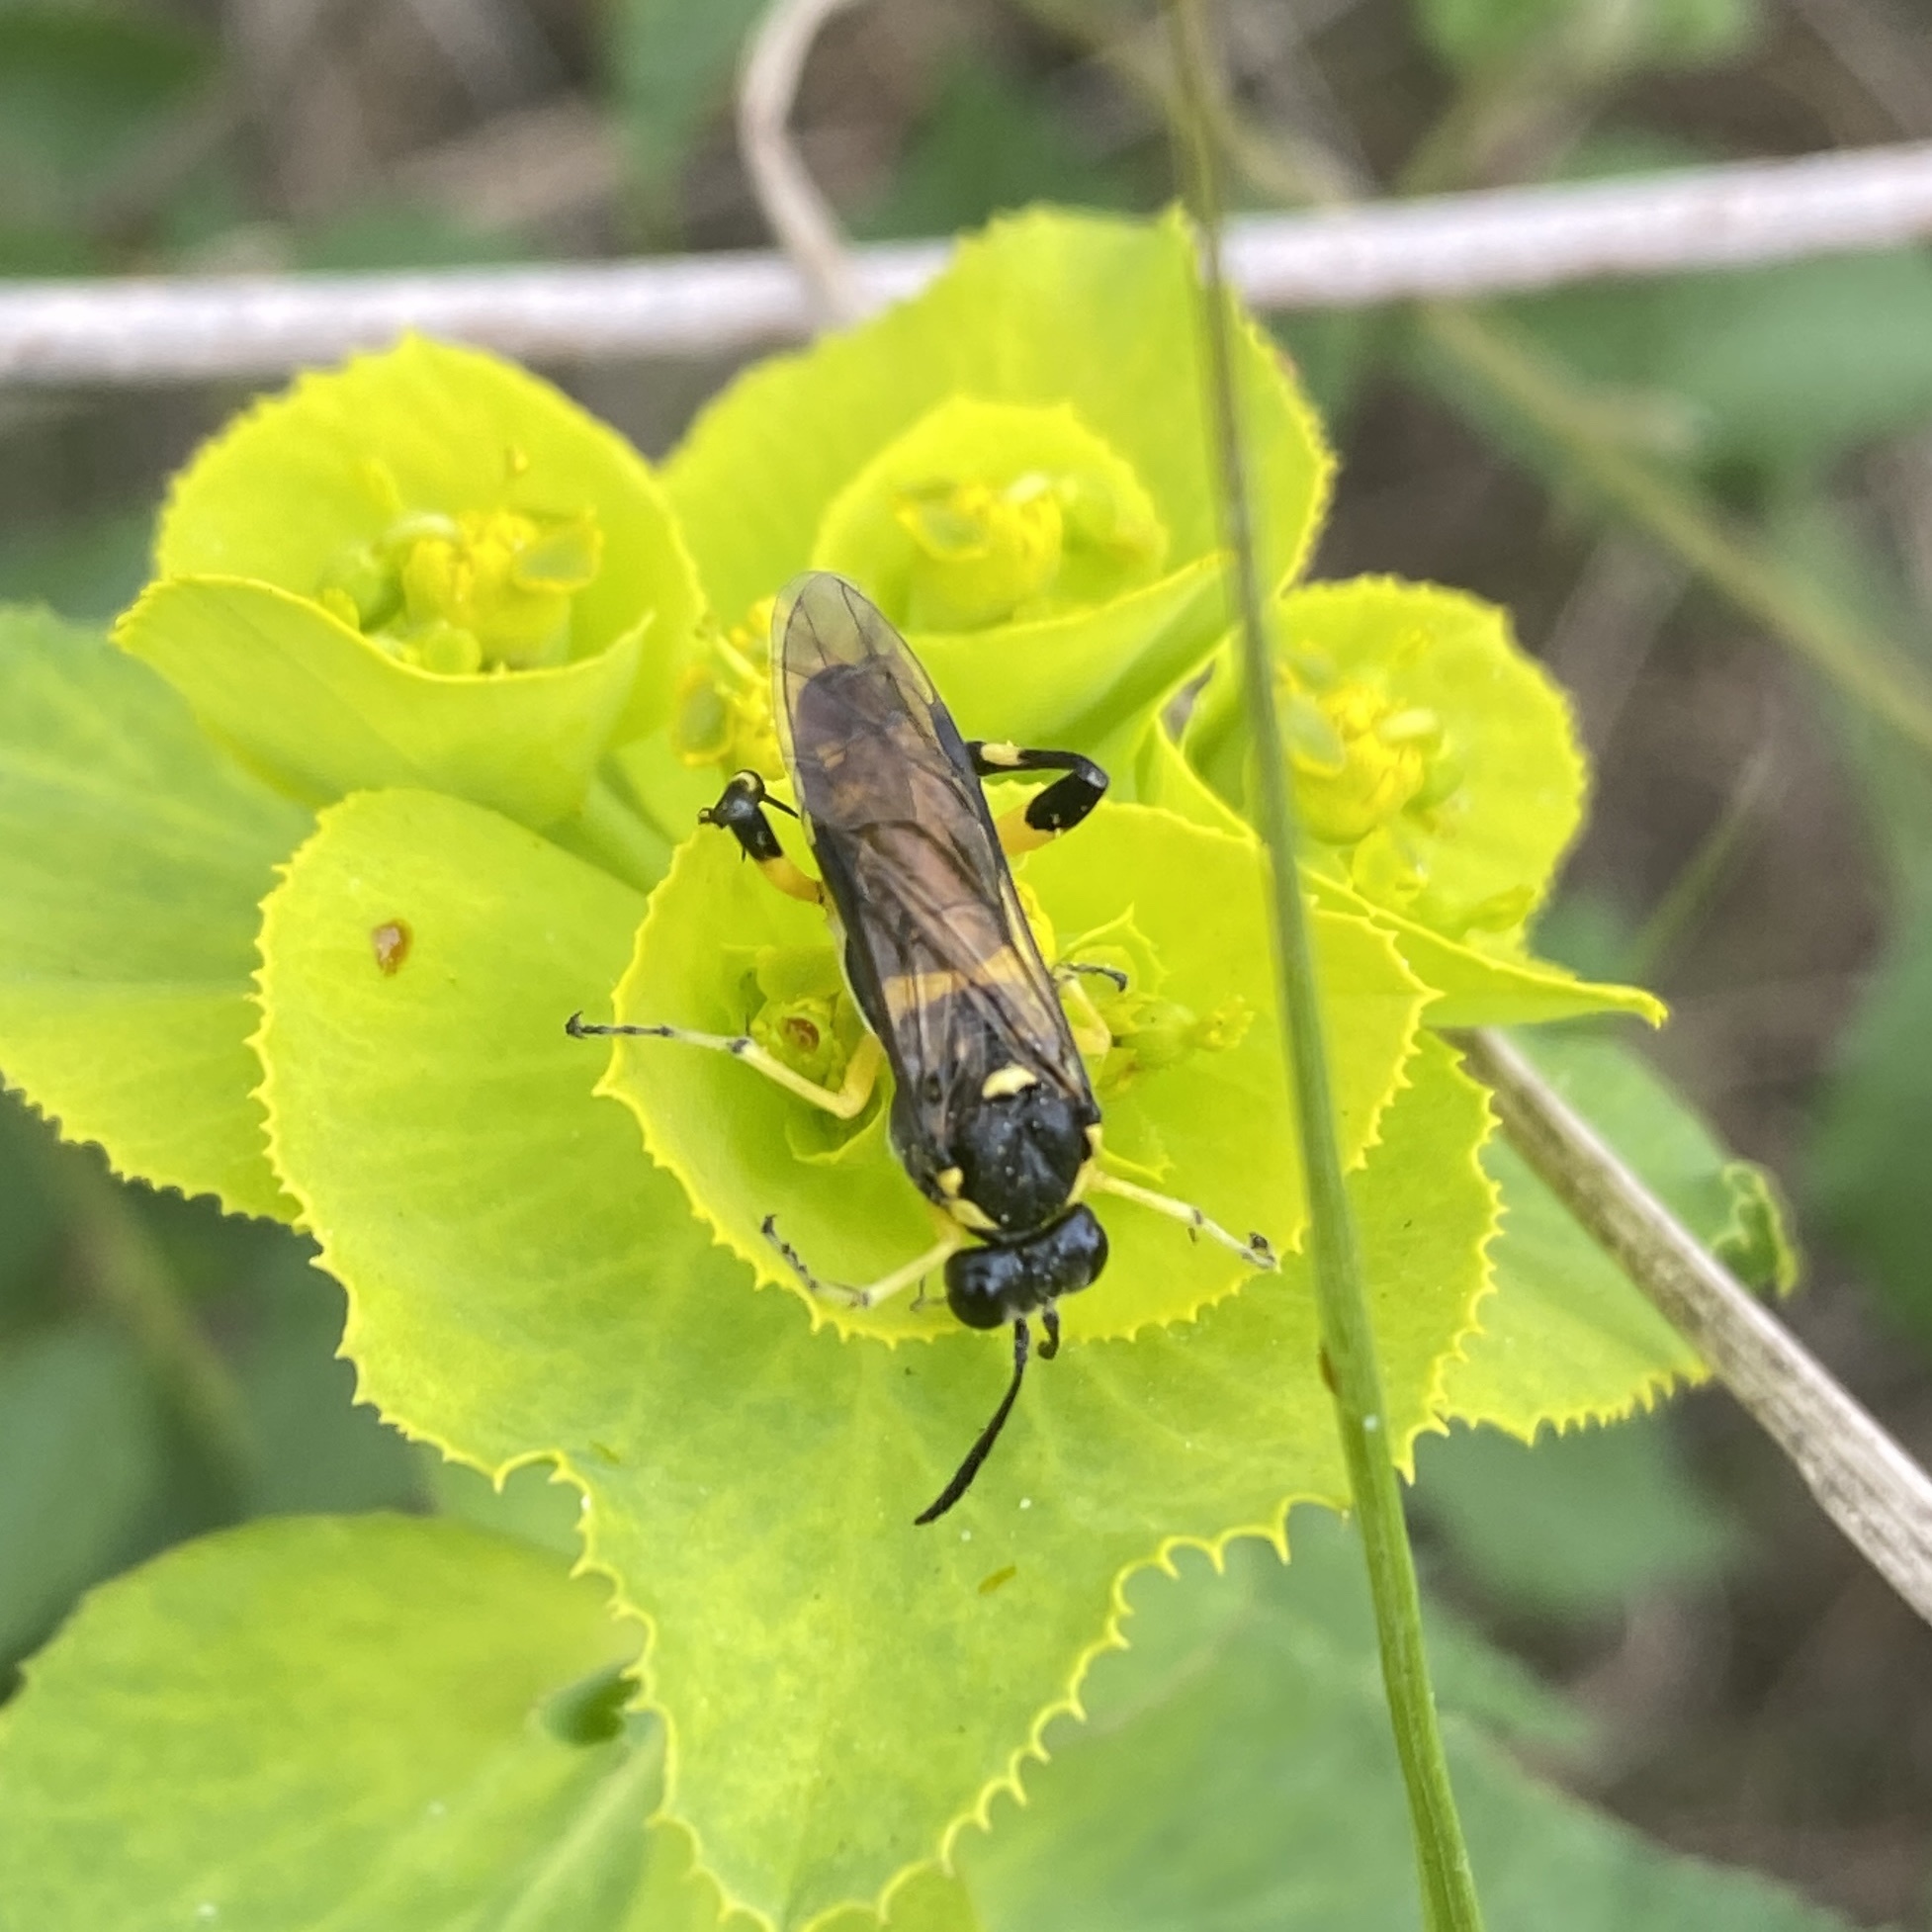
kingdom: Animalia
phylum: Arthropoda
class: Insecta
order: Hymenoptera
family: Tenthredinidae
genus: Macrophya
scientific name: Macrophya montana
